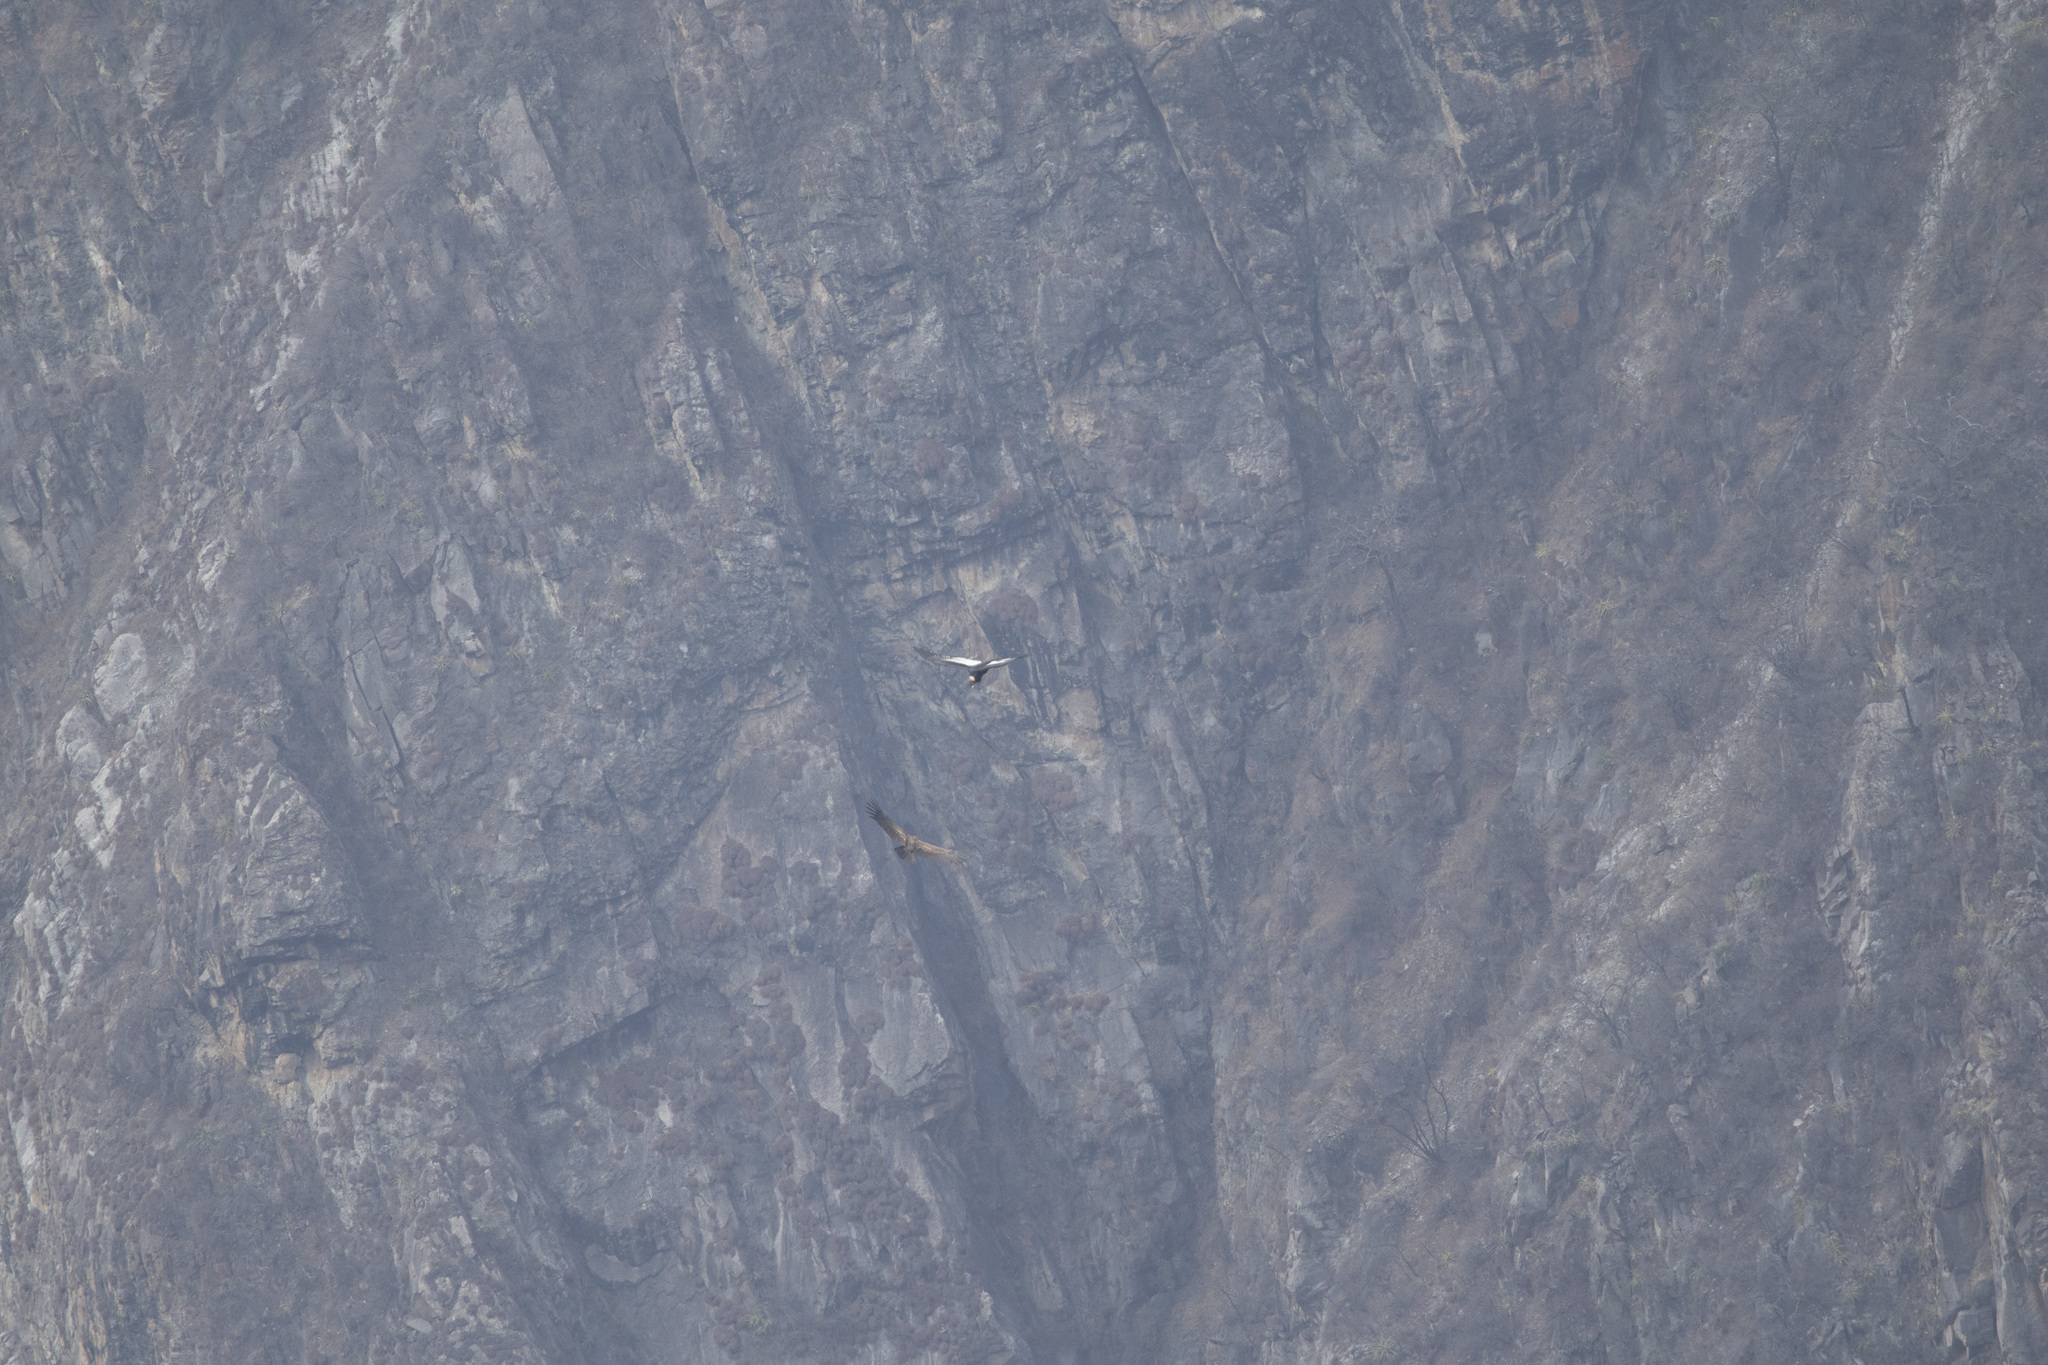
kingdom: Animalia
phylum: Chordata
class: Aves
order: Accipitriformes
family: Cathartidae
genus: Vultur
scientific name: Vultur gryphus
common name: Andean condor
